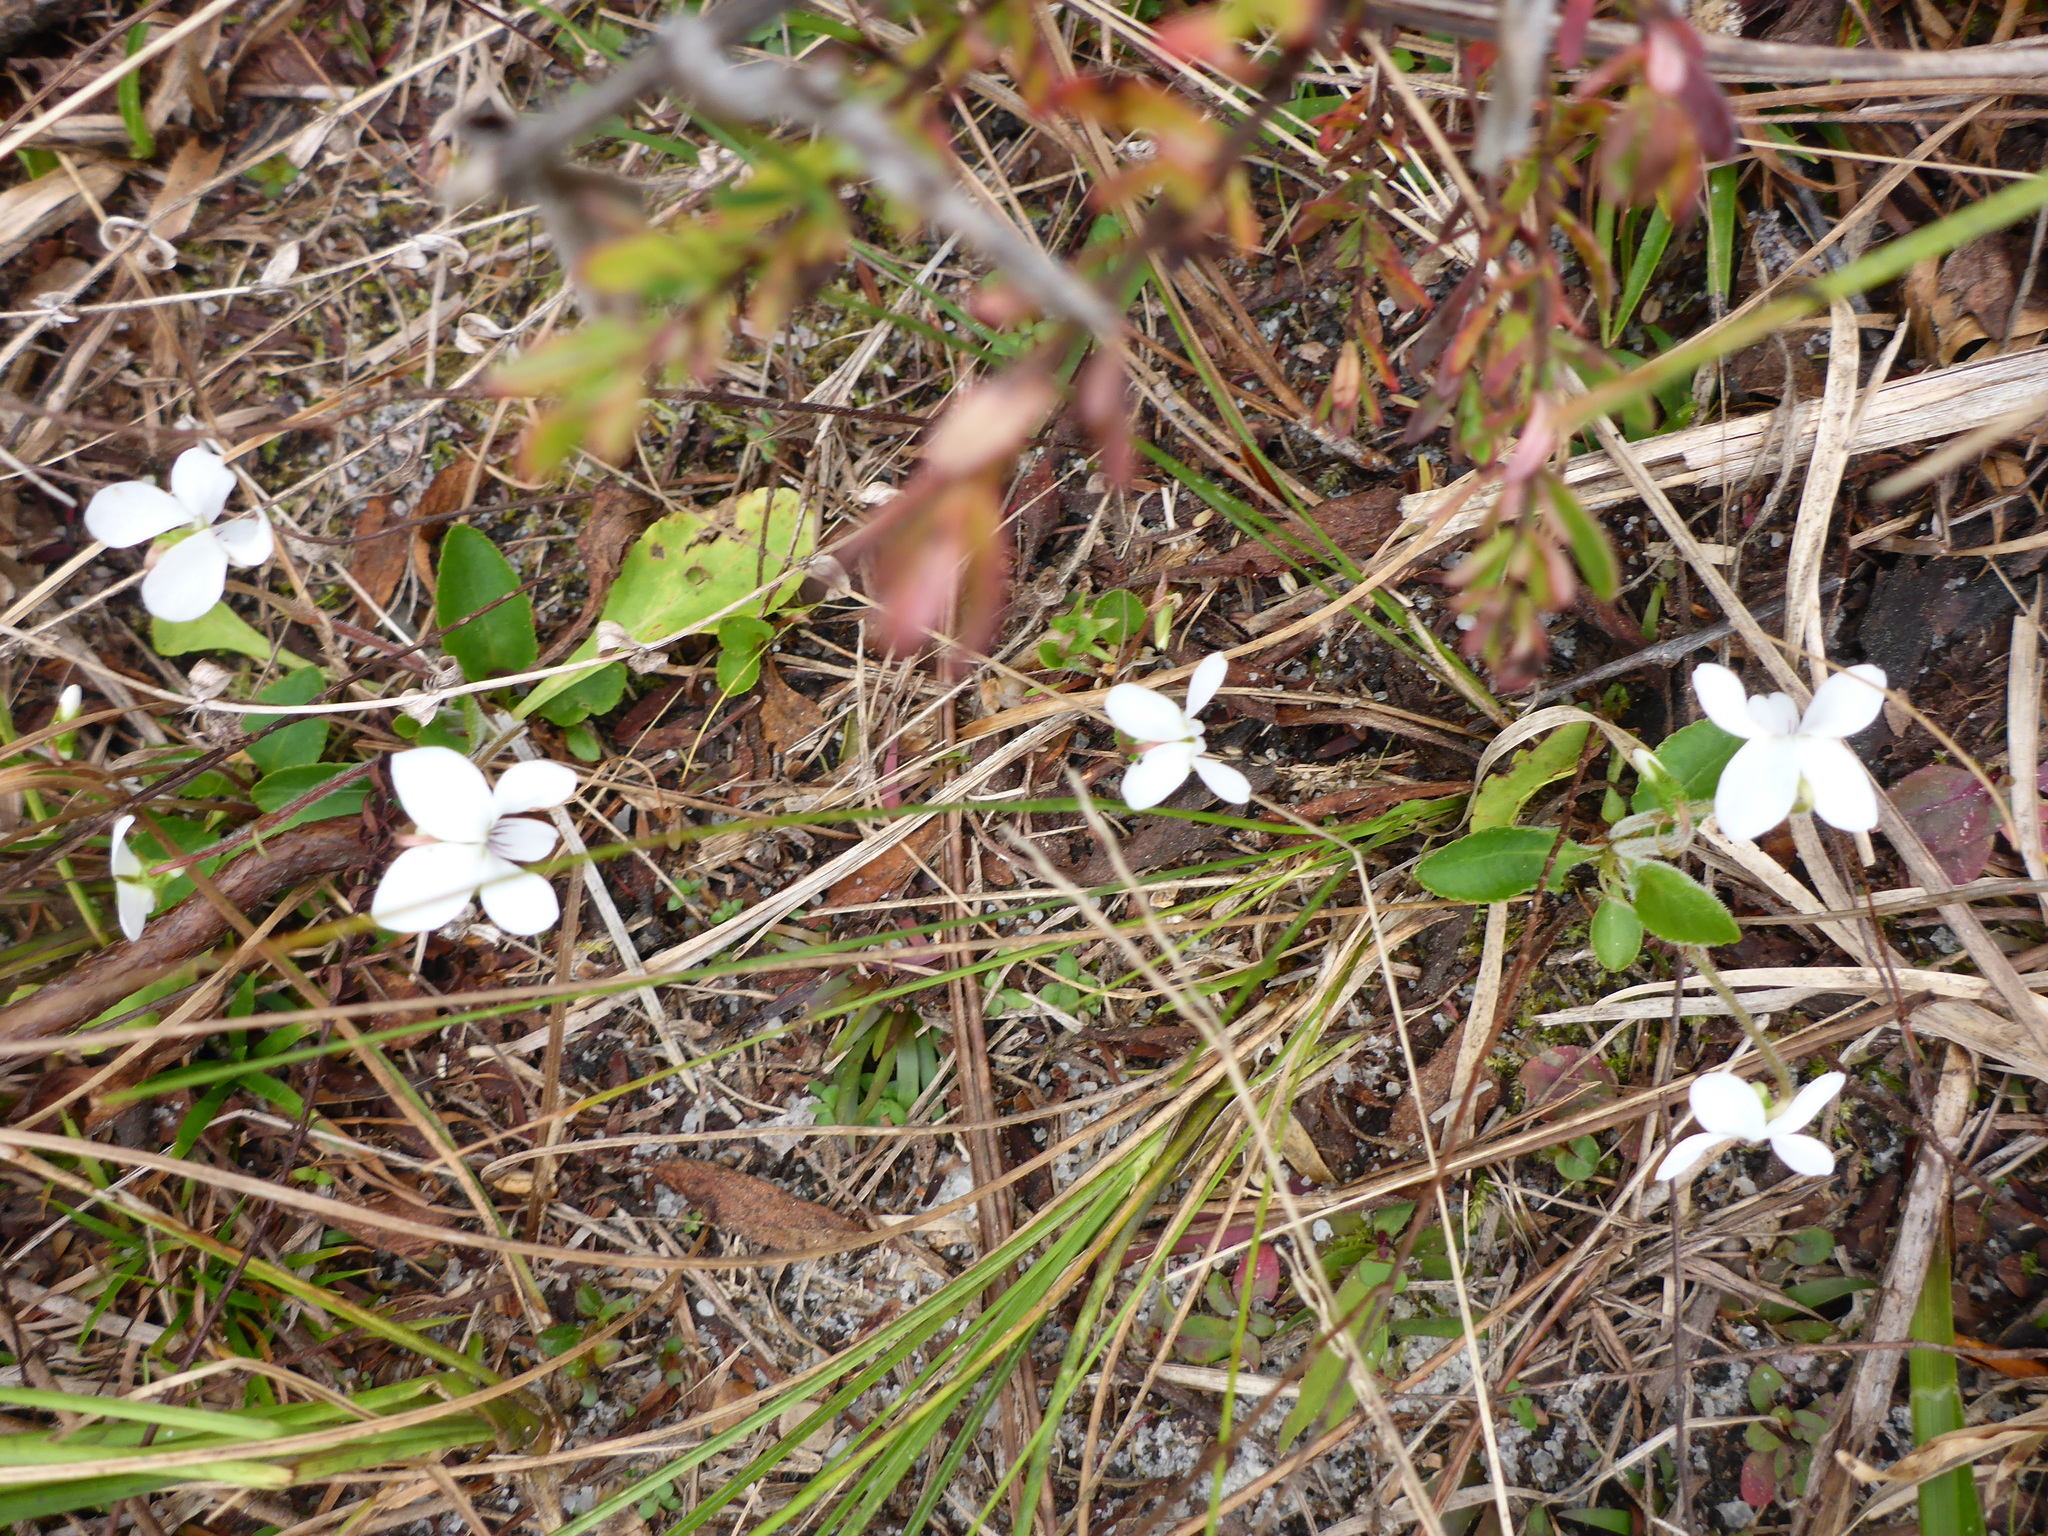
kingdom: Plantae
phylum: Tracheophyta
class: Magnoliopsida
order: Malpighiales
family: Violaceae
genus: Viola
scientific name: Viola primulifolia
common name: Primrose-leaf violet
